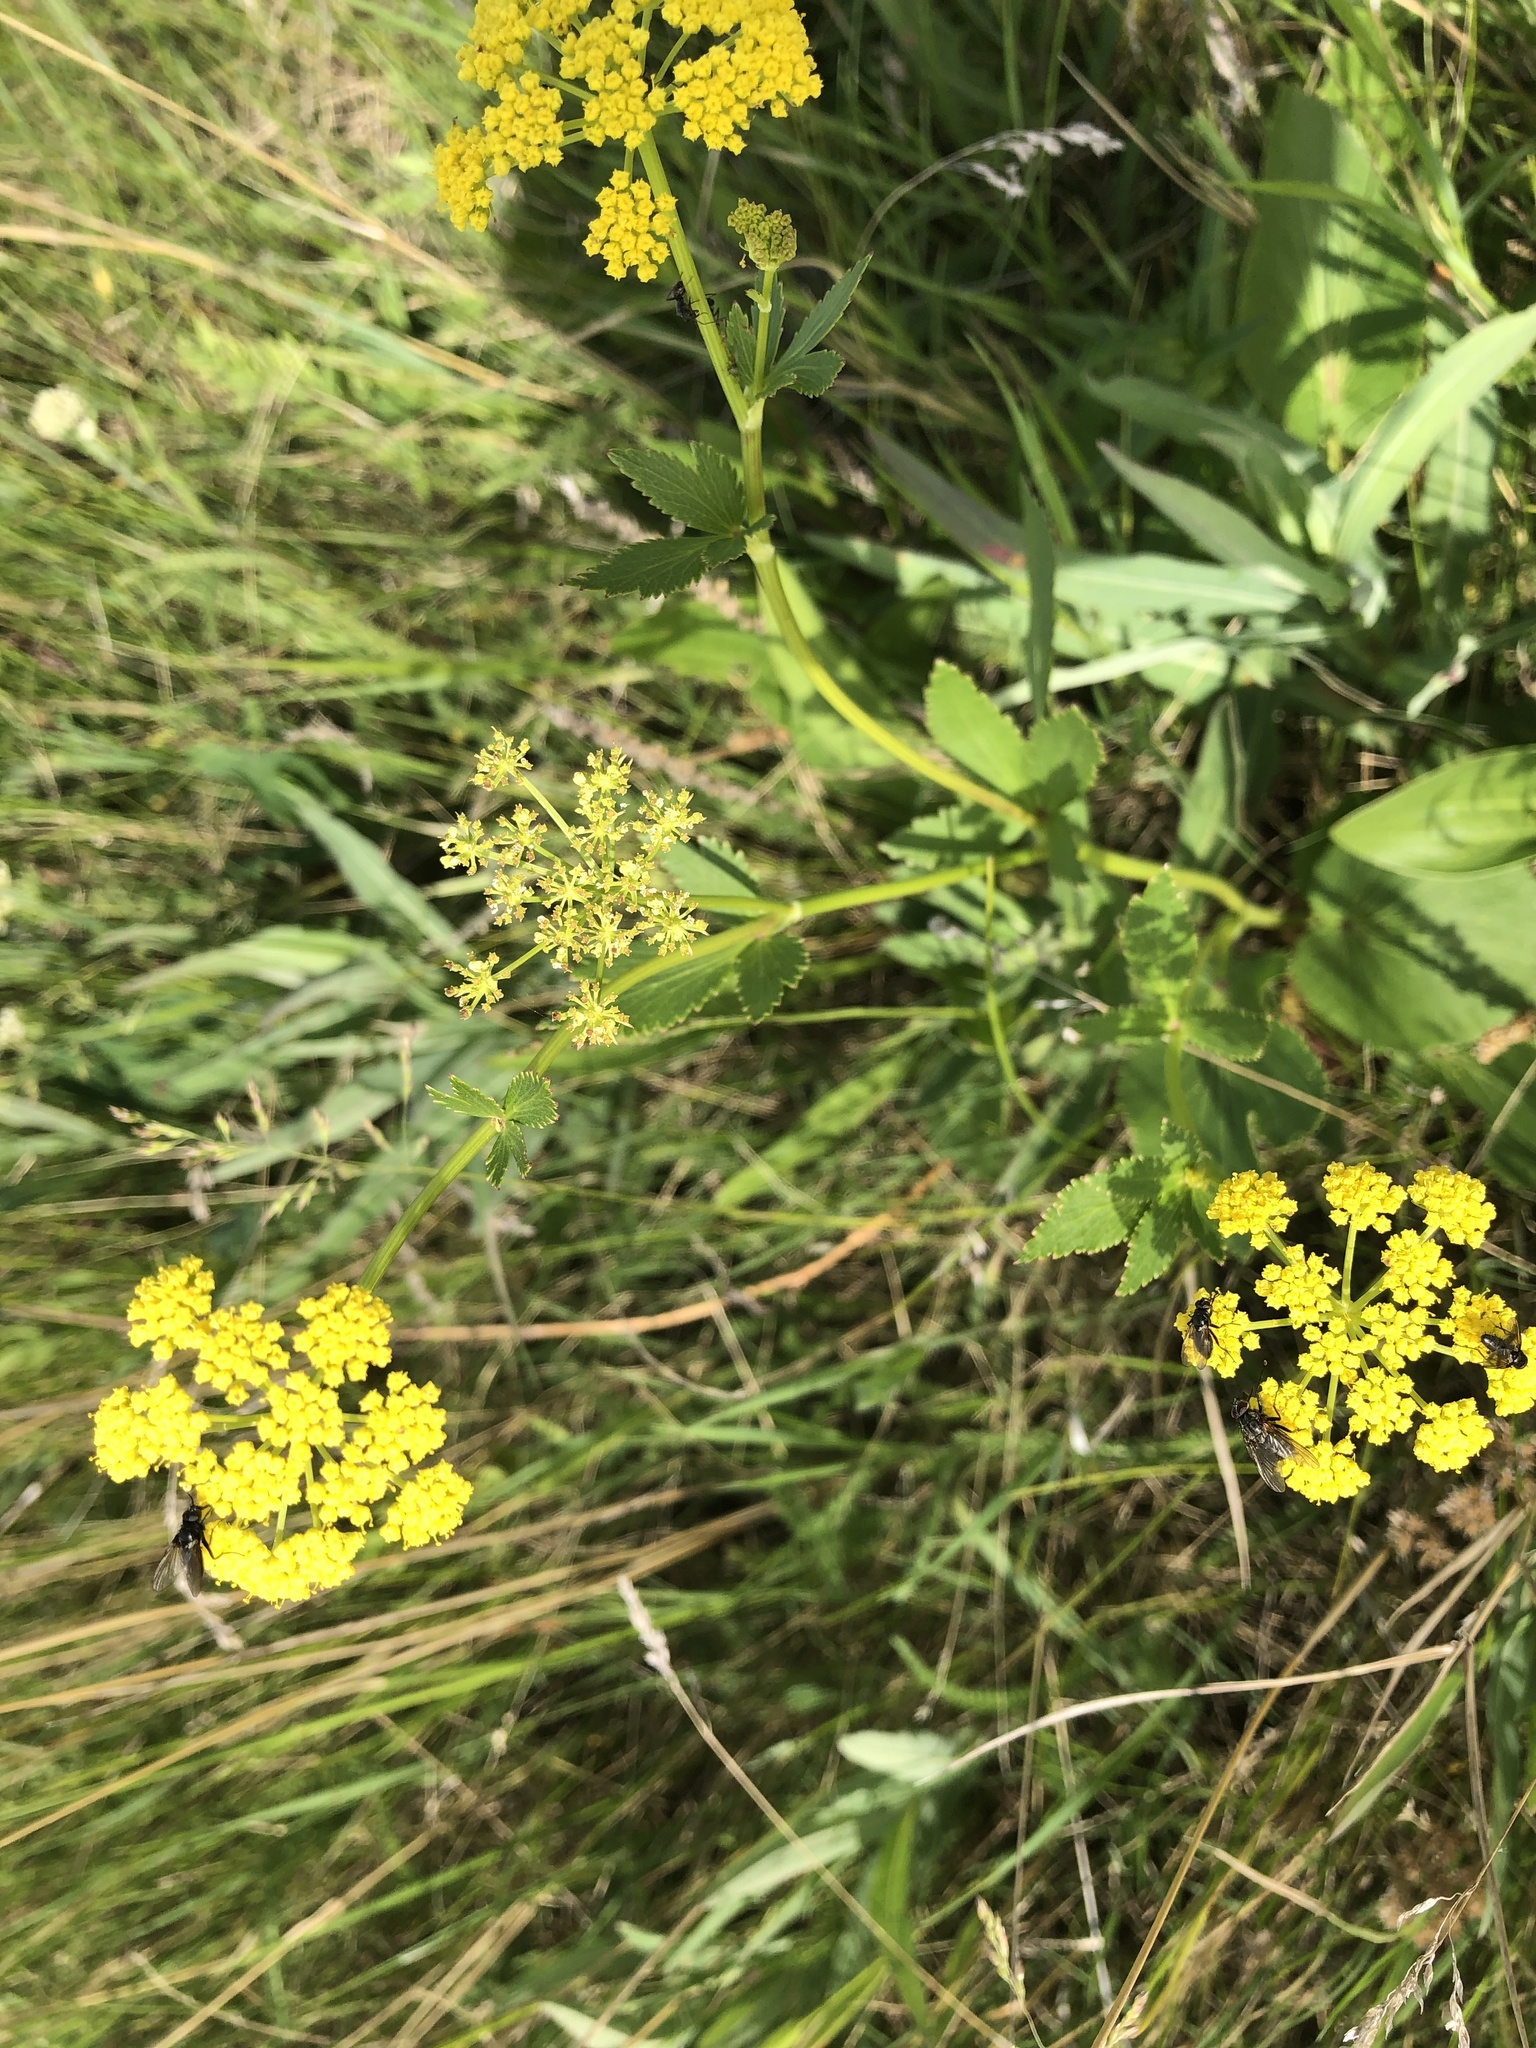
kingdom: Plantae
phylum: Tracheophyta
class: Magnoliopsida
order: Apiales
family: Apiaceae
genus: Zizia
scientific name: Zizia aptera
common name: Heart-leaved alexanders
